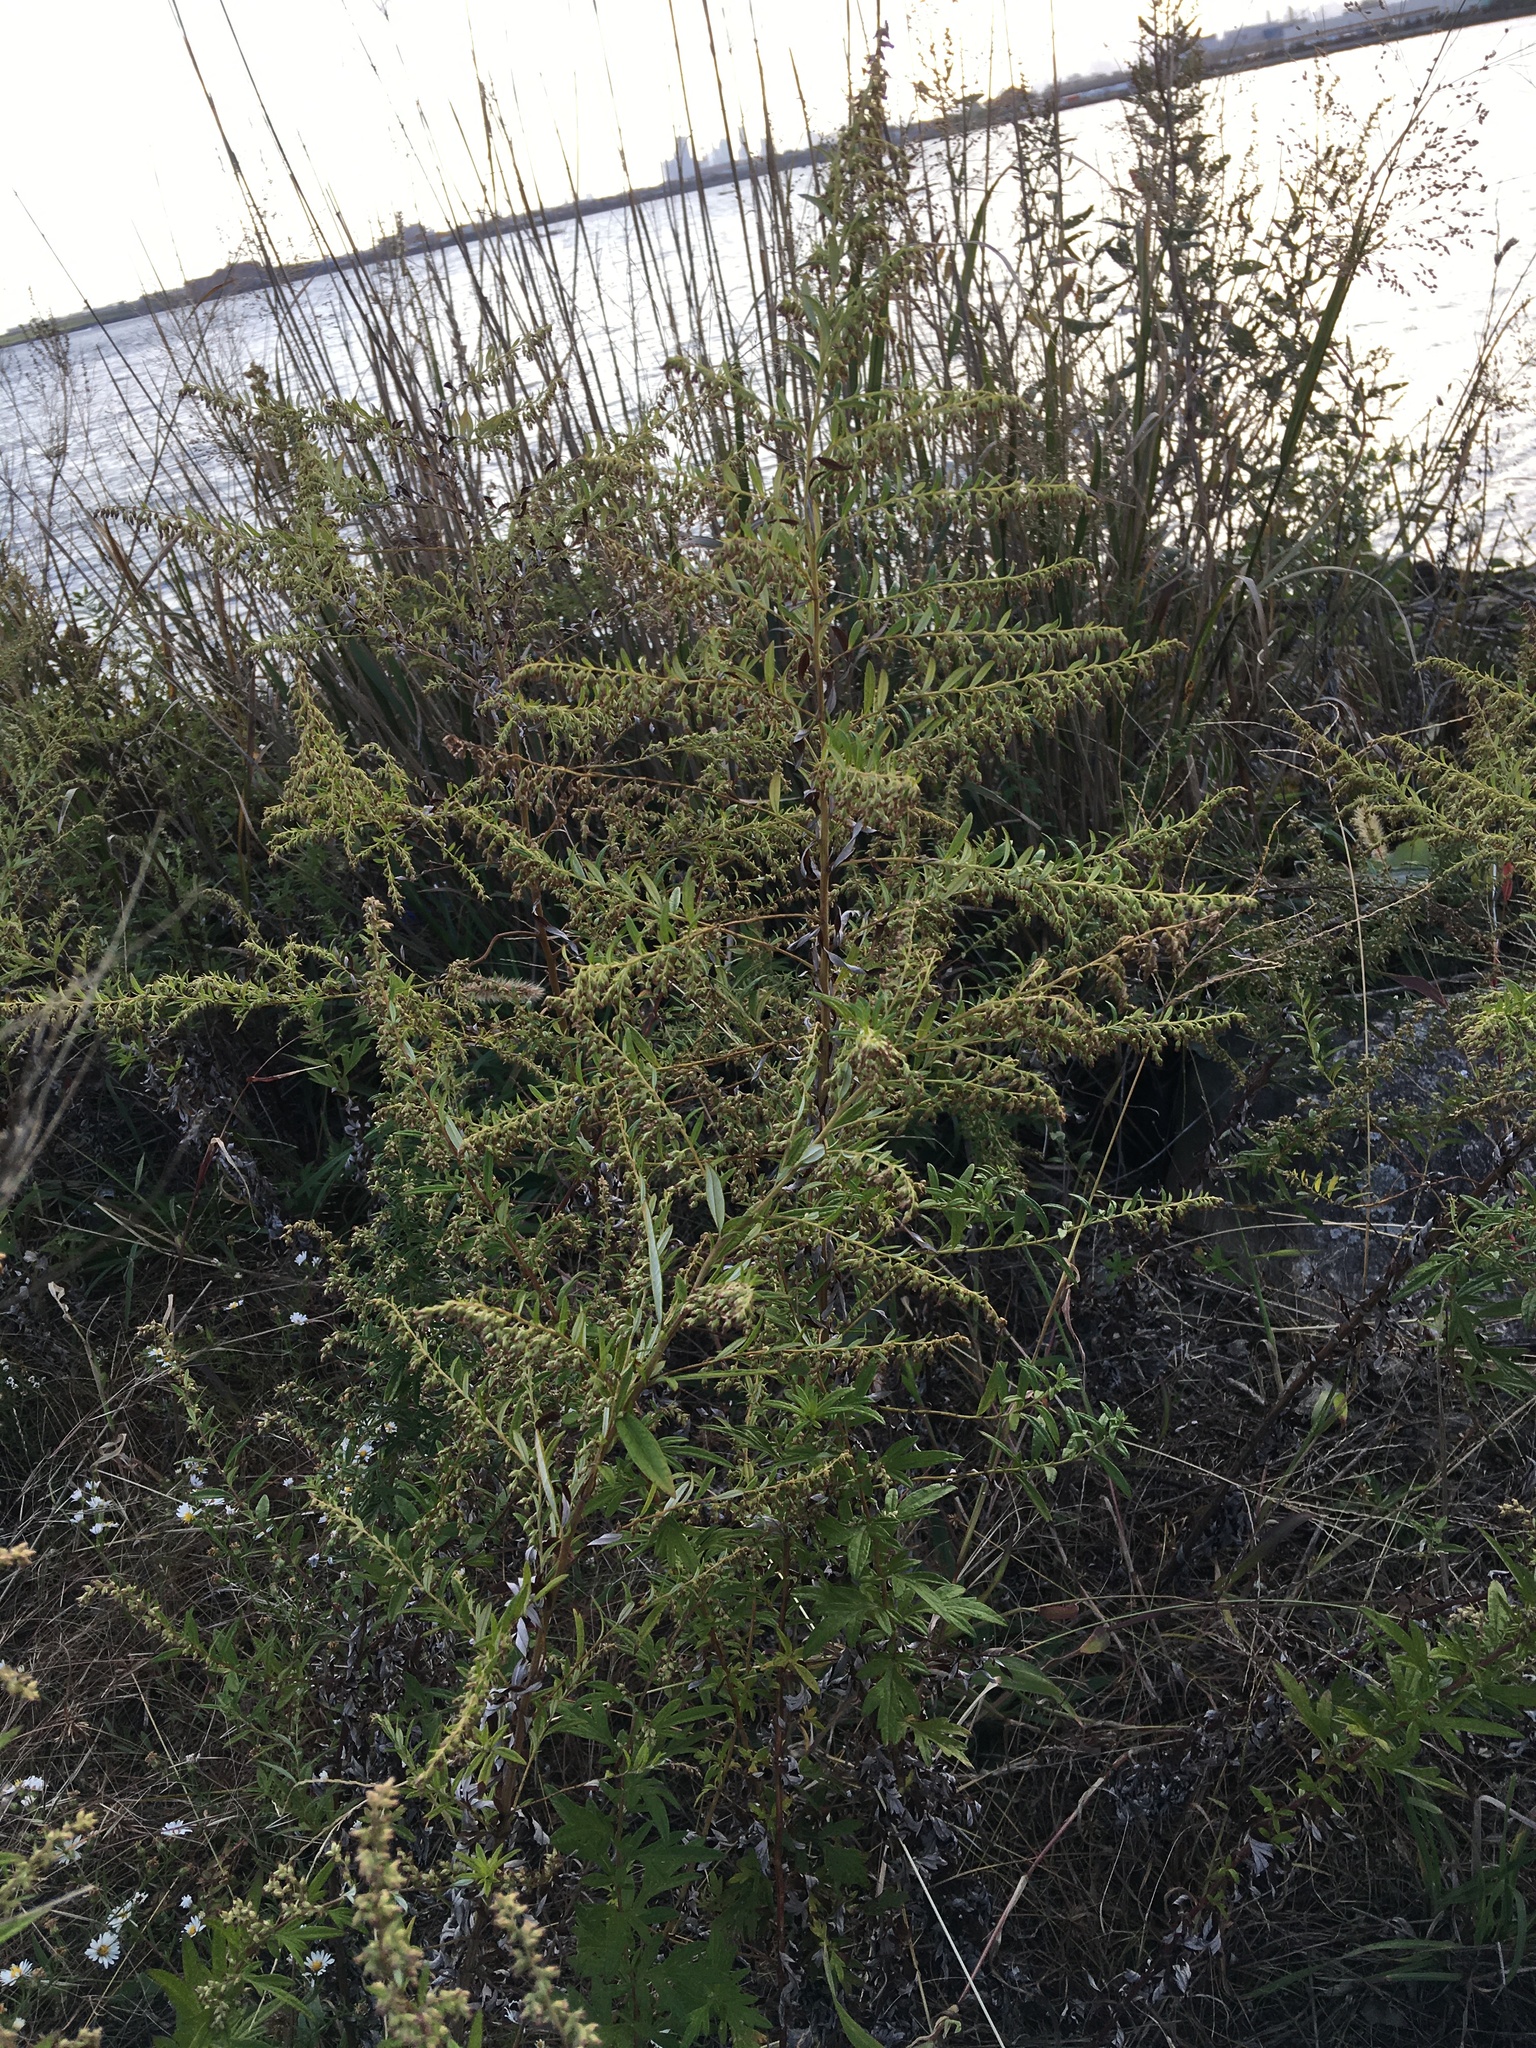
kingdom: Plantae
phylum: Tracheophyta
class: Magnoliopsida
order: Asterales
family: Asteraceae
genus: Artemisia
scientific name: Artemisia vulgaris
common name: Mugwort
